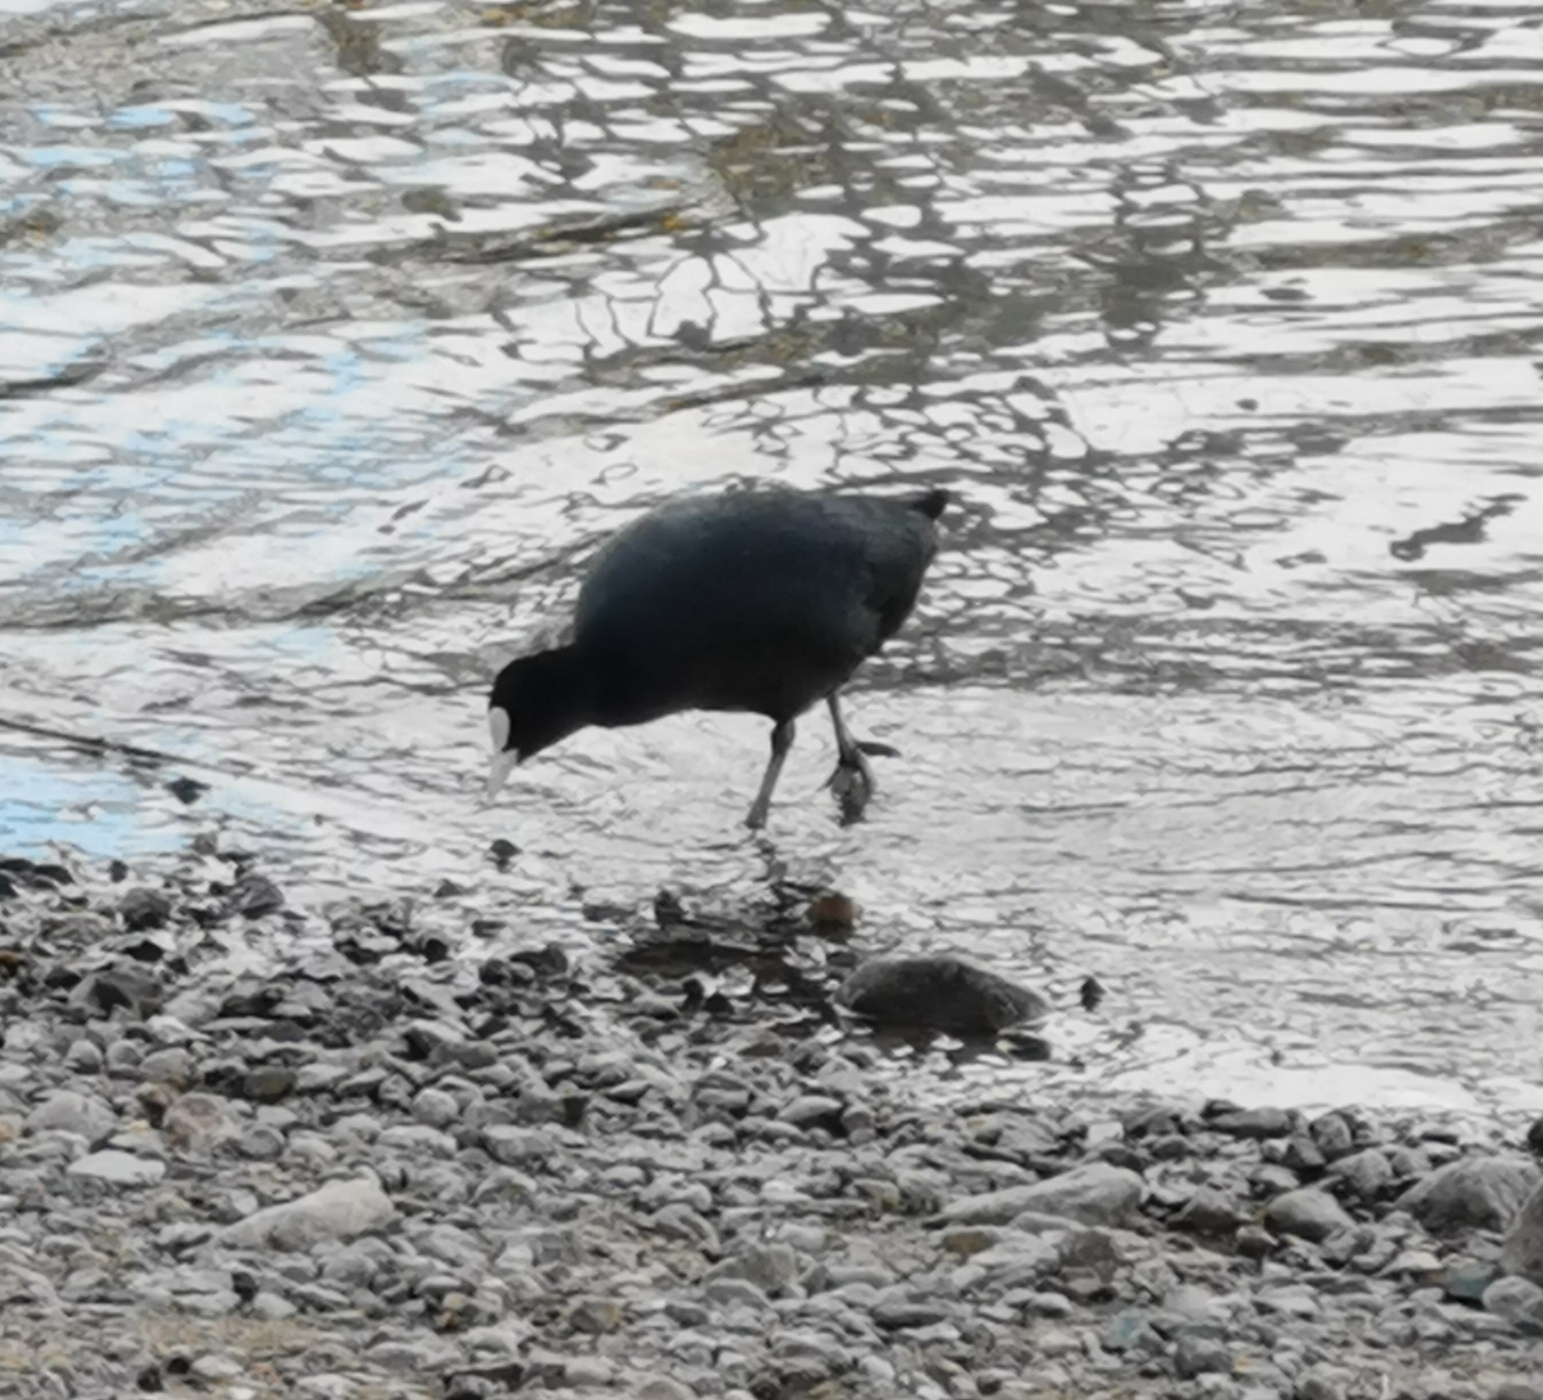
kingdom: Animalia
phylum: Chordata
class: Aves
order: Gruiformes
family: Rallidae
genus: Fulica
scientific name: Fulica atra
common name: Eurasian coot
